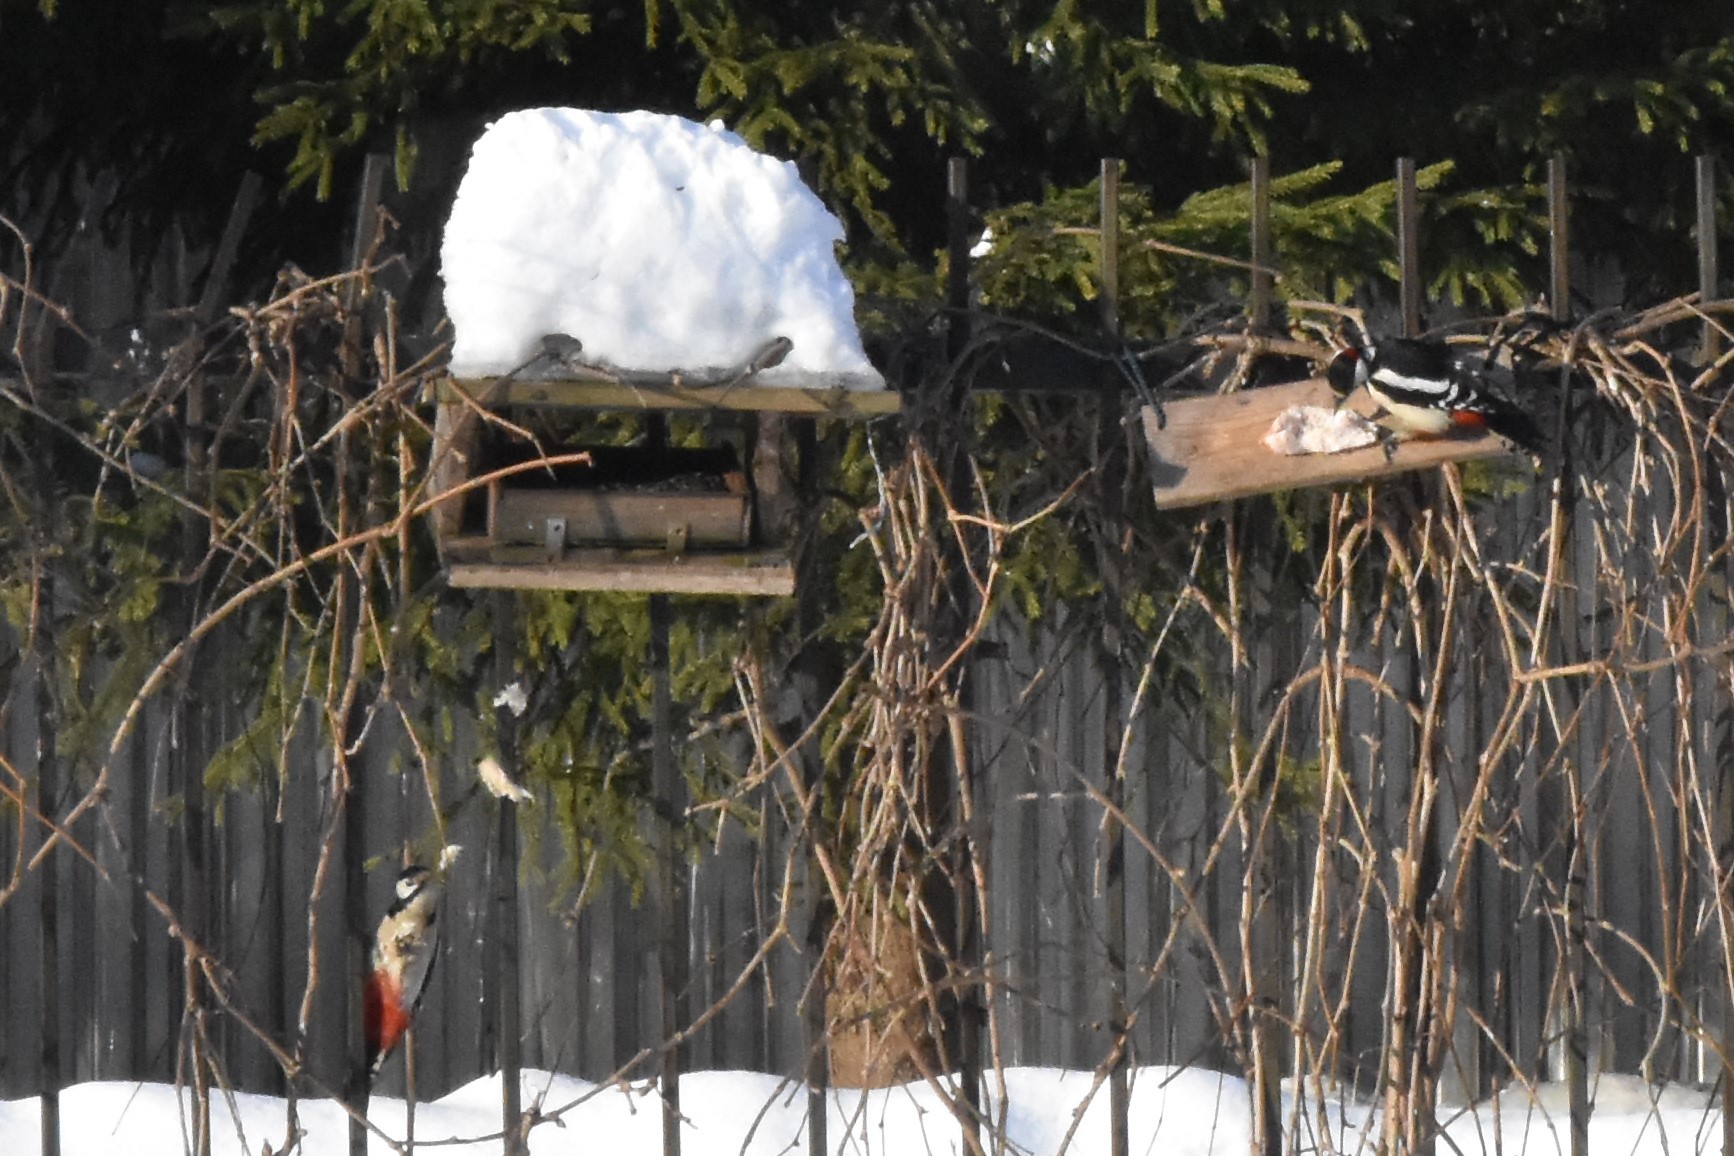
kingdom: Animalia
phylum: Chordata
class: Aves
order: Piciformes
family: Picidae
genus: Dendrocopos
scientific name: Dendrocopos major
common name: Great spotted woodpecker
